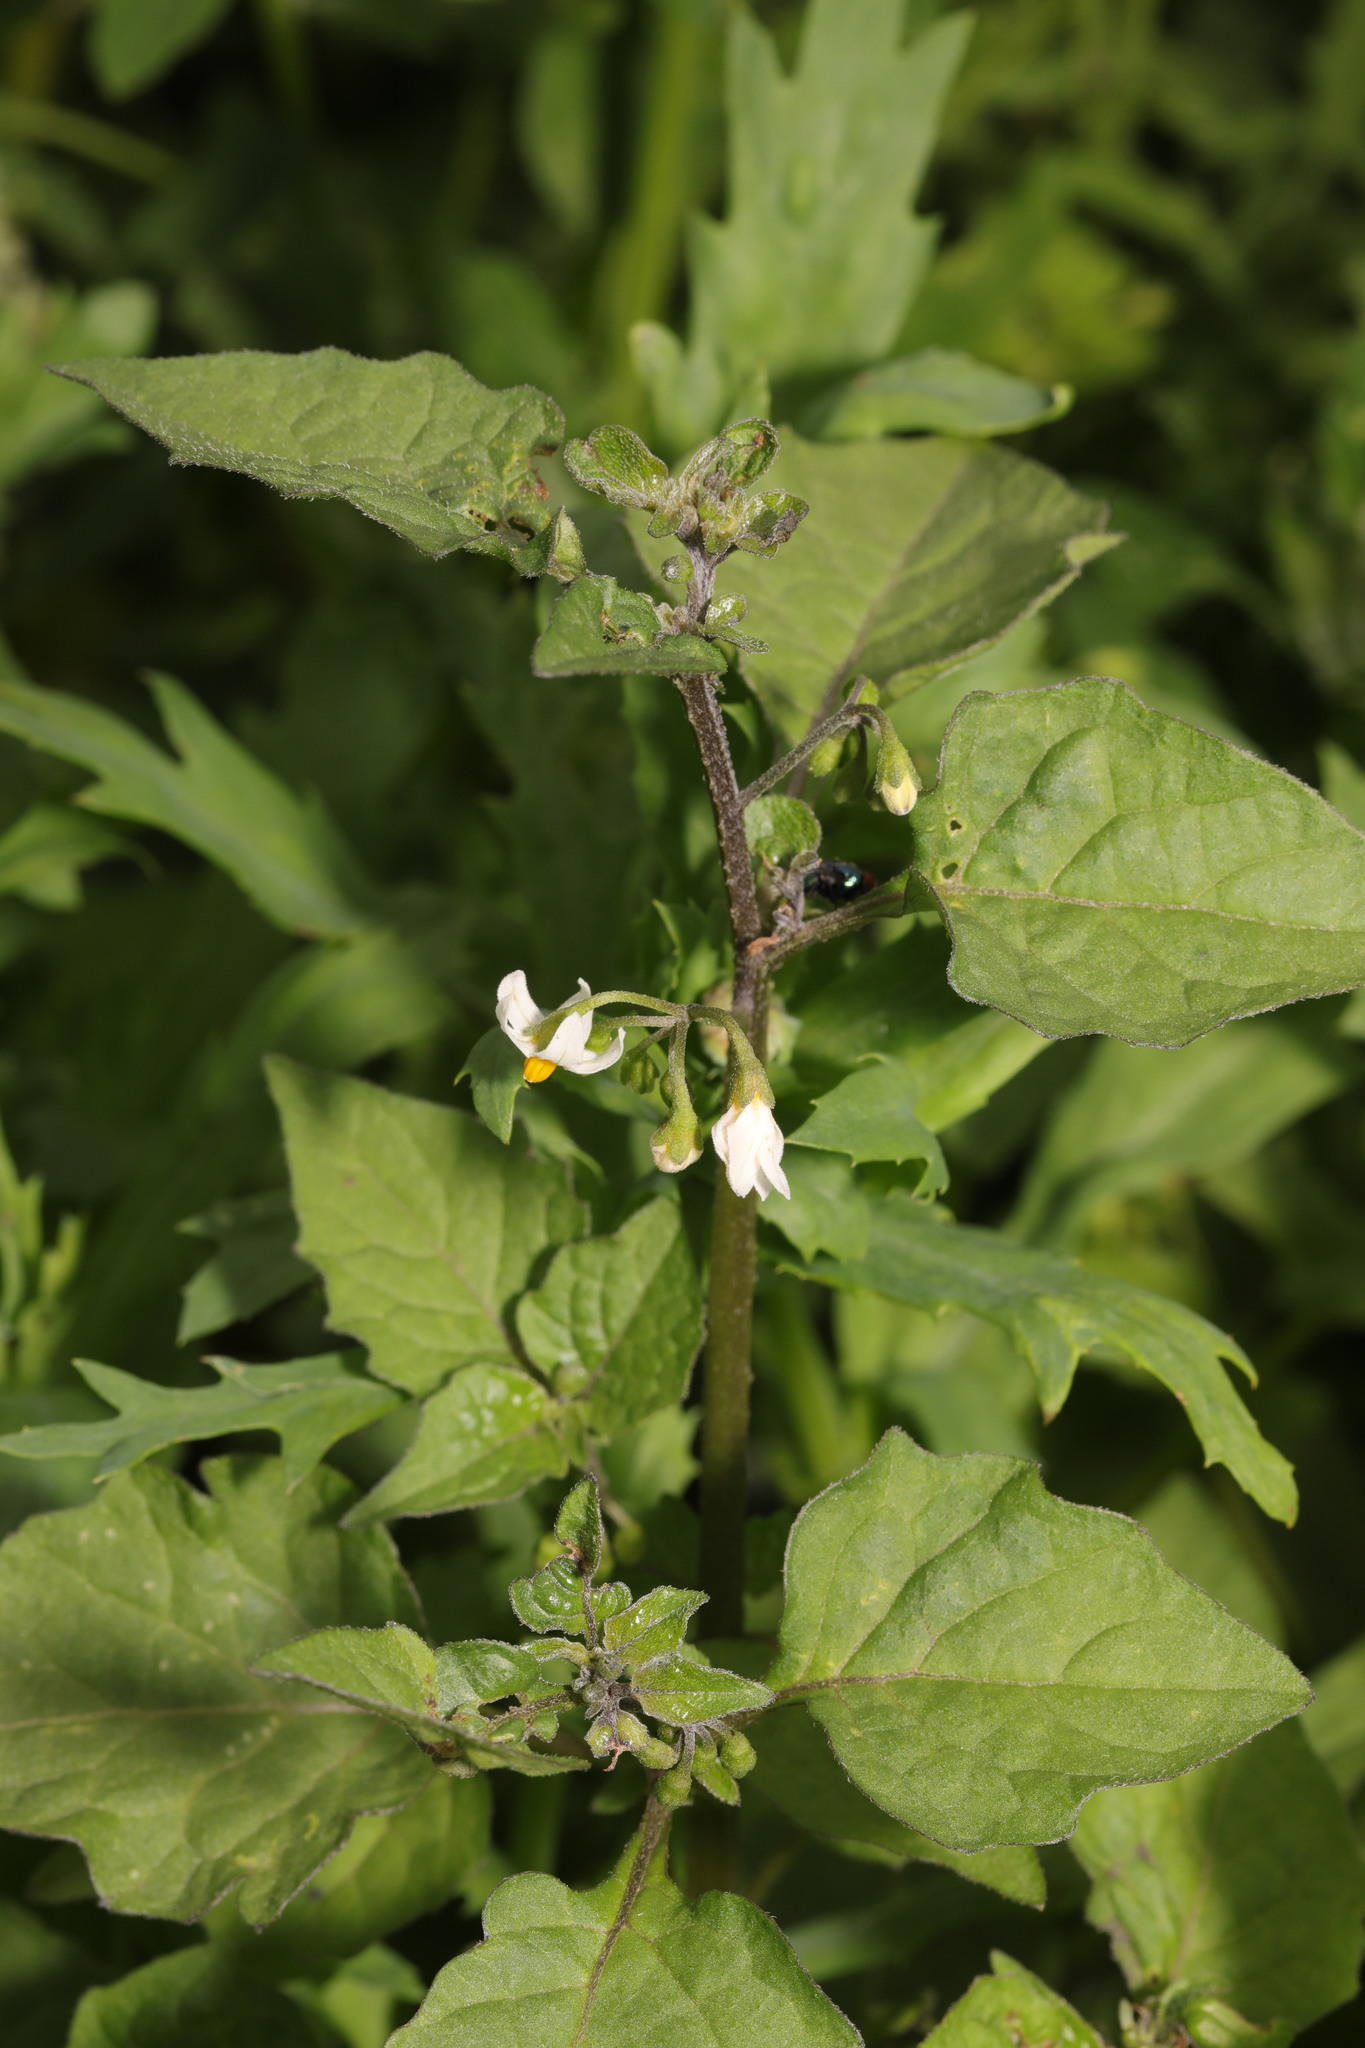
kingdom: Plantae
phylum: Tracheophyta
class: Magnoliopsida
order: Solanales
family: Solanaceae
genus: Solanum
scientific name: Solanum nigrum
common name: Black nightshade
